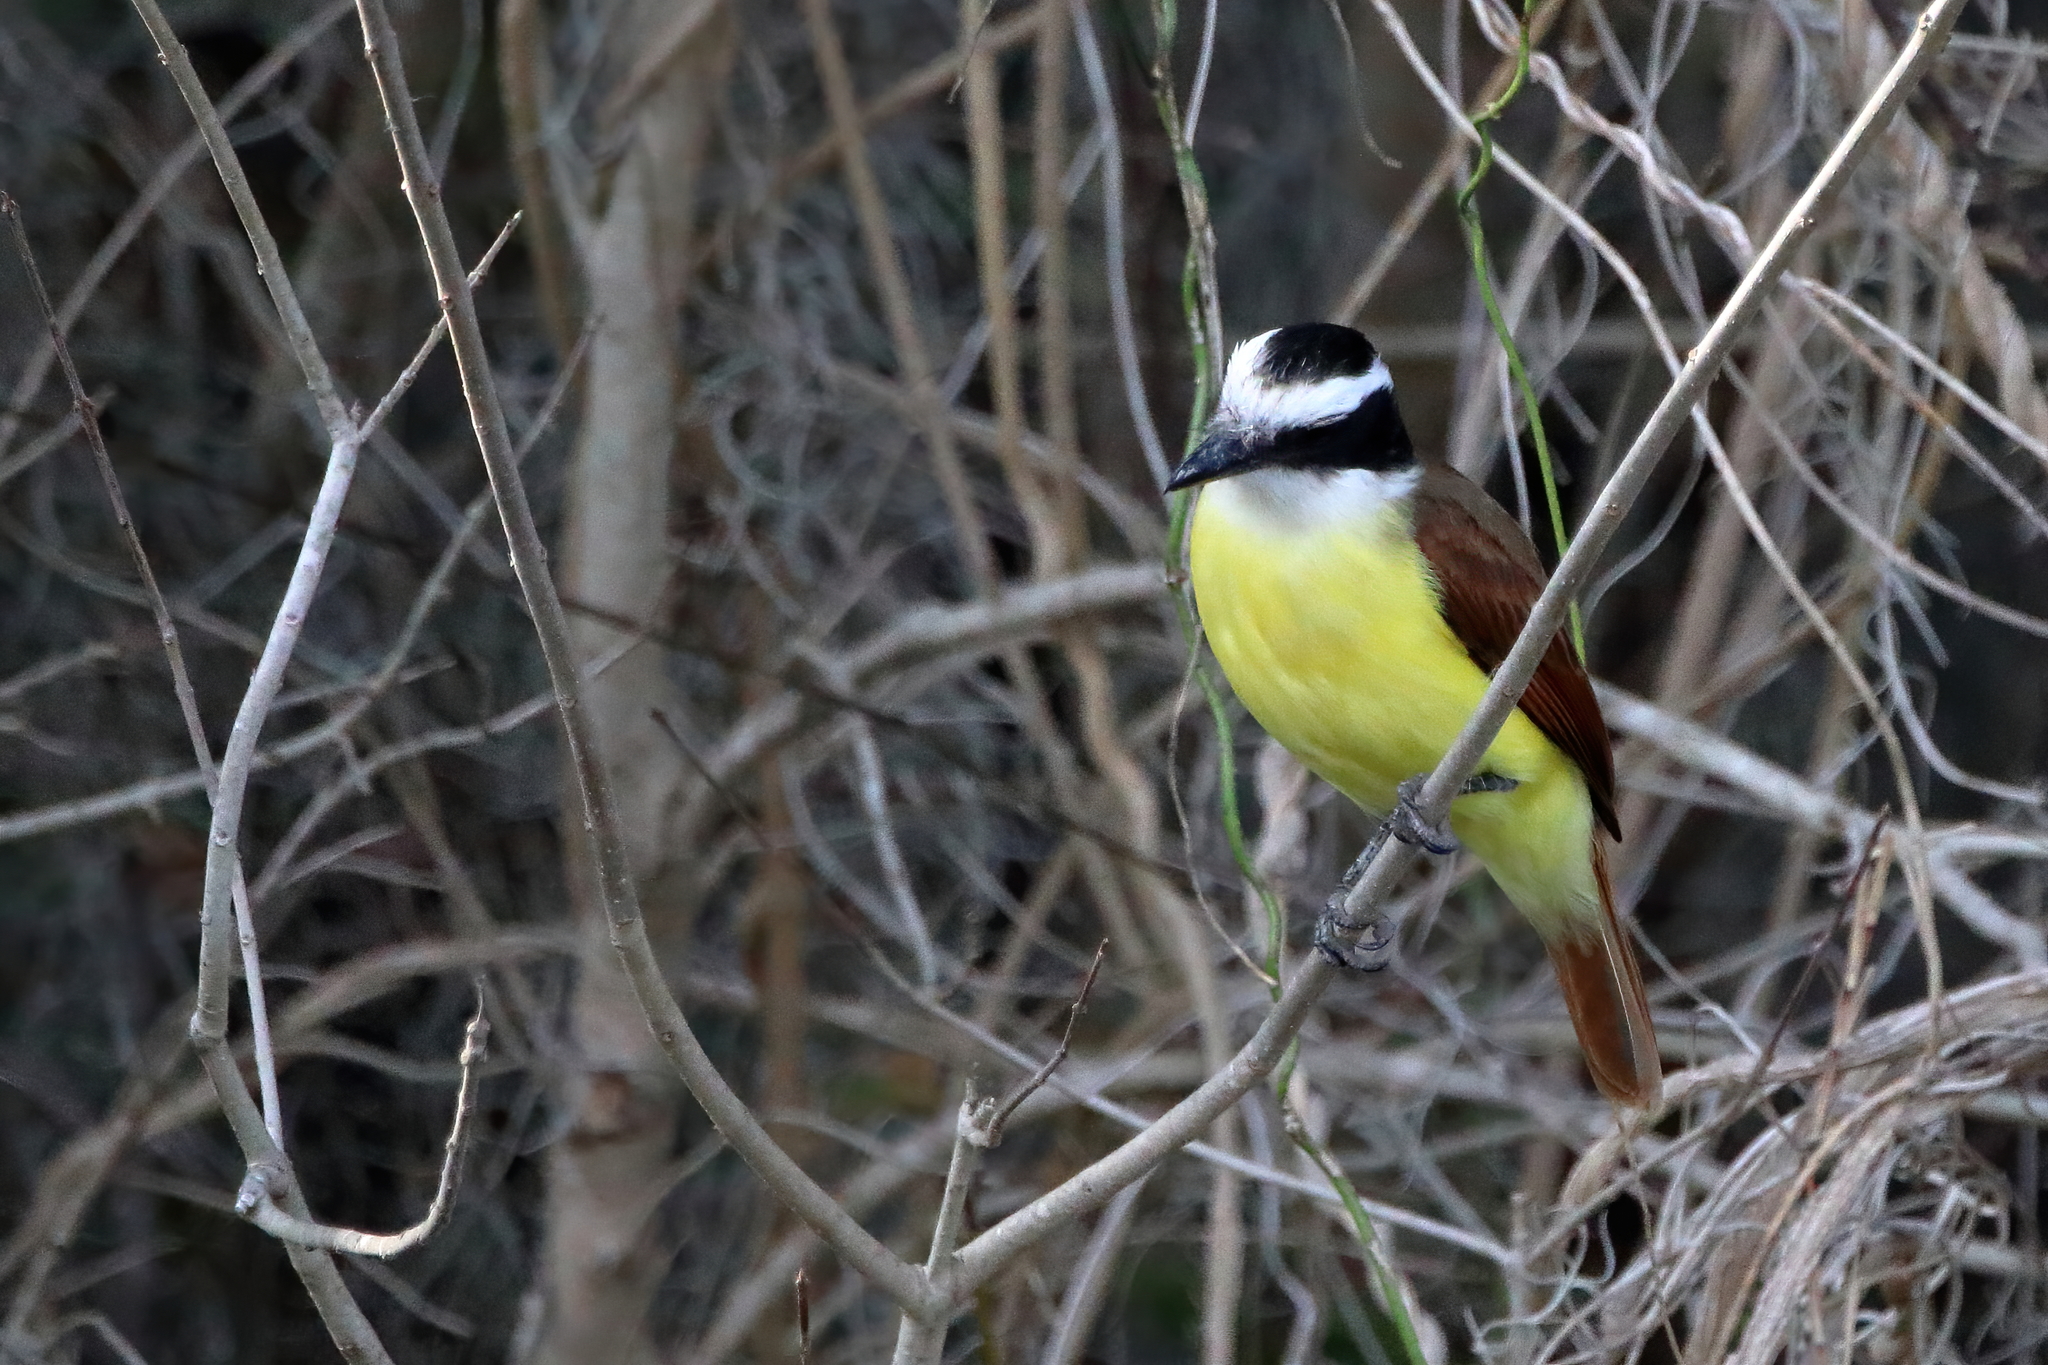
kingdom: Animalia
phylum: Chordata
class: Aves
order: Passeriformes
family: Tyrannidae
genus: Pitangus
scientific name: Pitangus sulphuratus
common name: Great kiskadee
